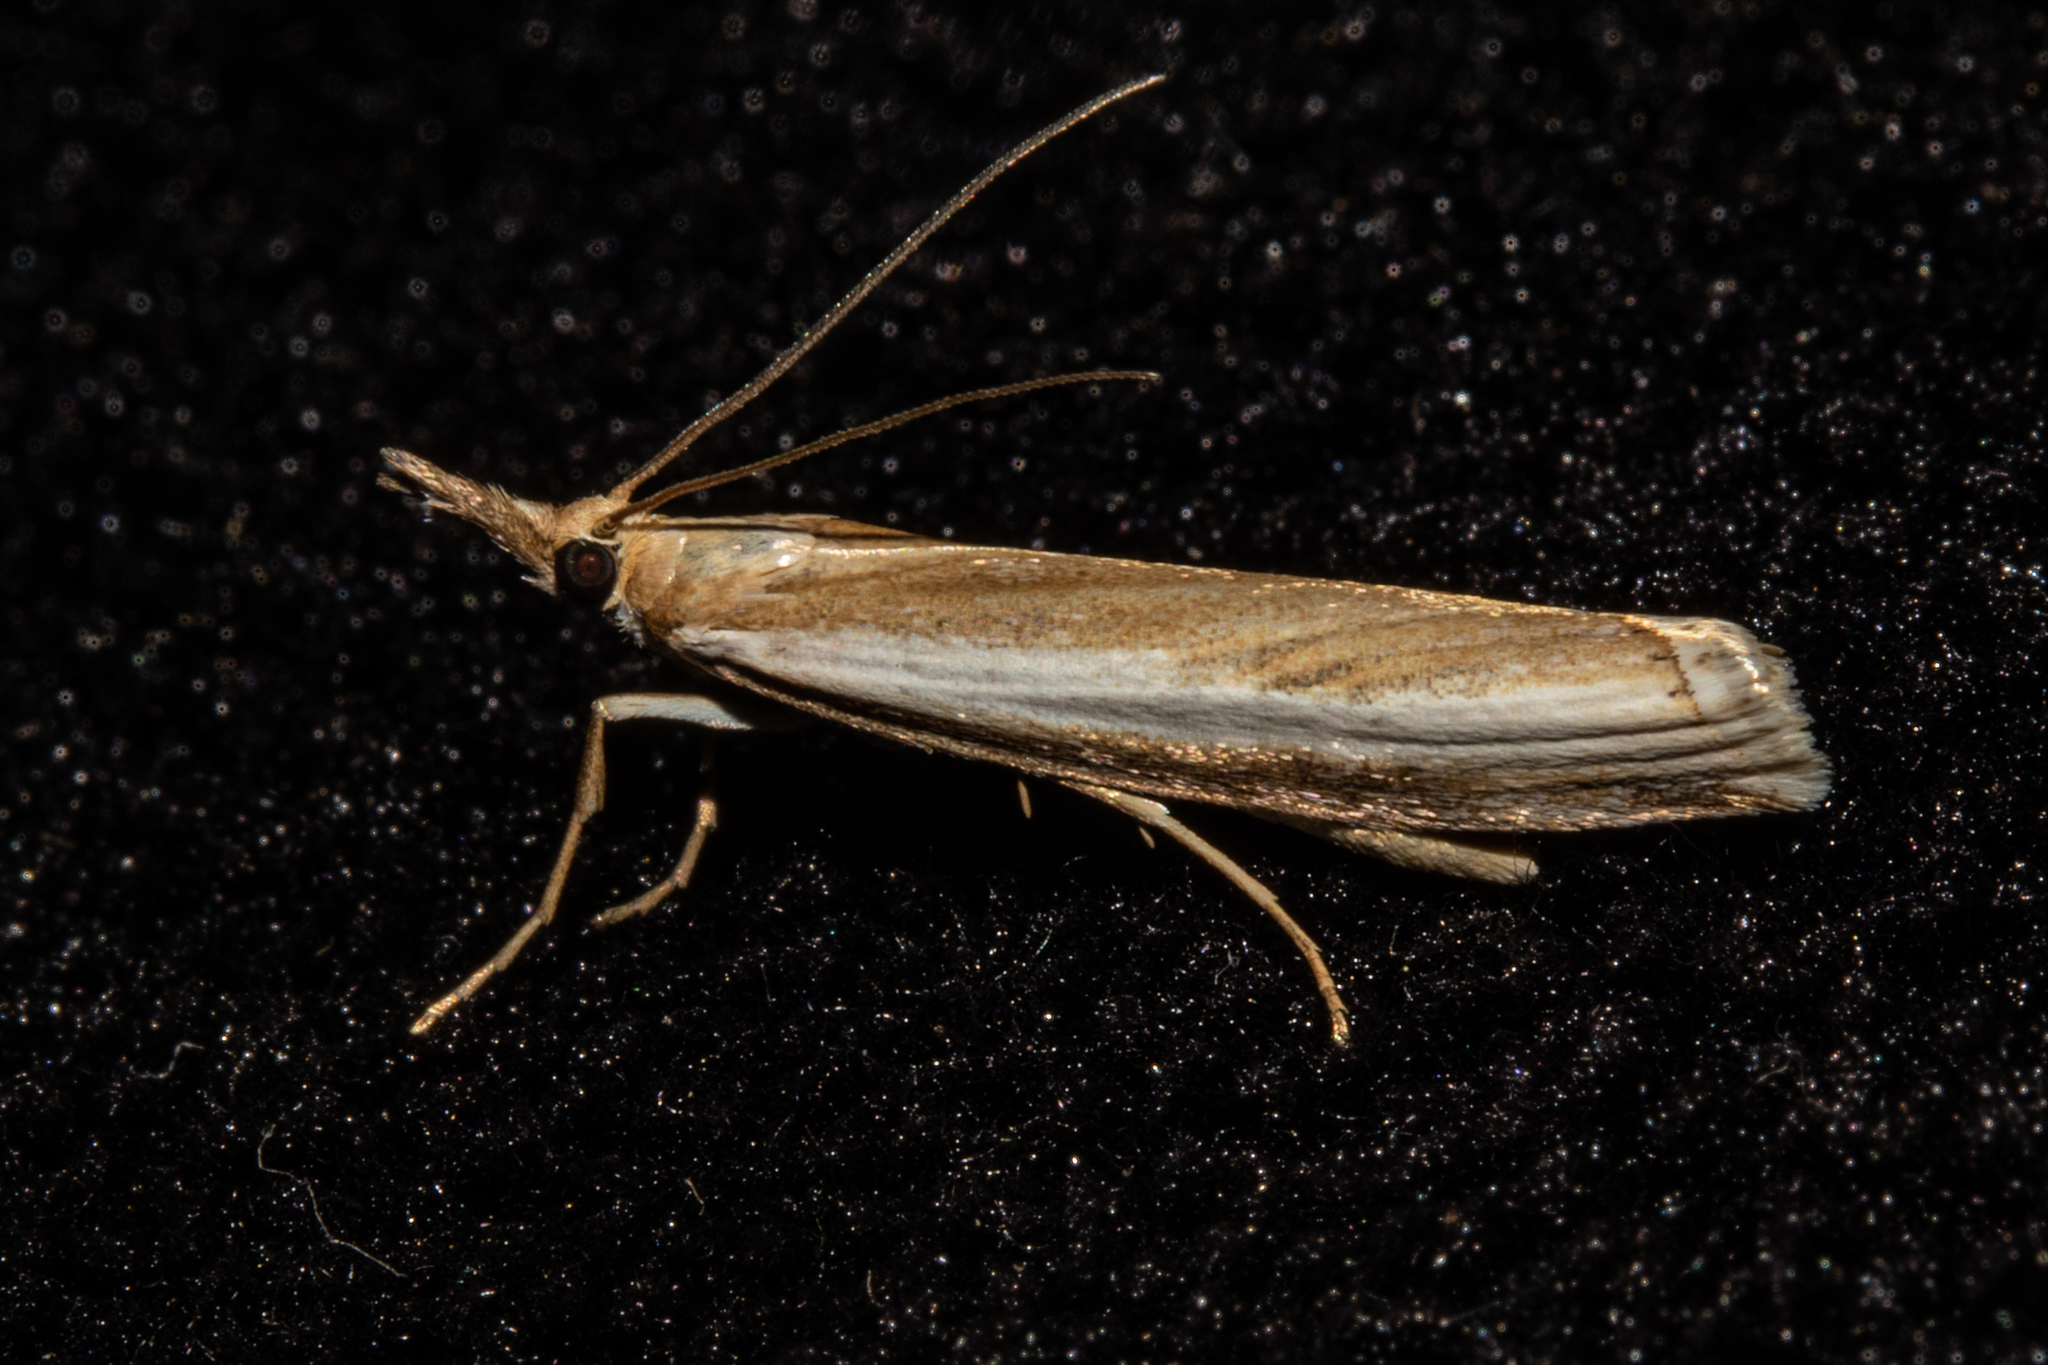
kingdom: Animalia
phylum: Arthropoda
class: Insecta
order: Lepidoptera
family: Crambidae
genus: Orocrambus
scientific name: Orocrambus vulgaris
